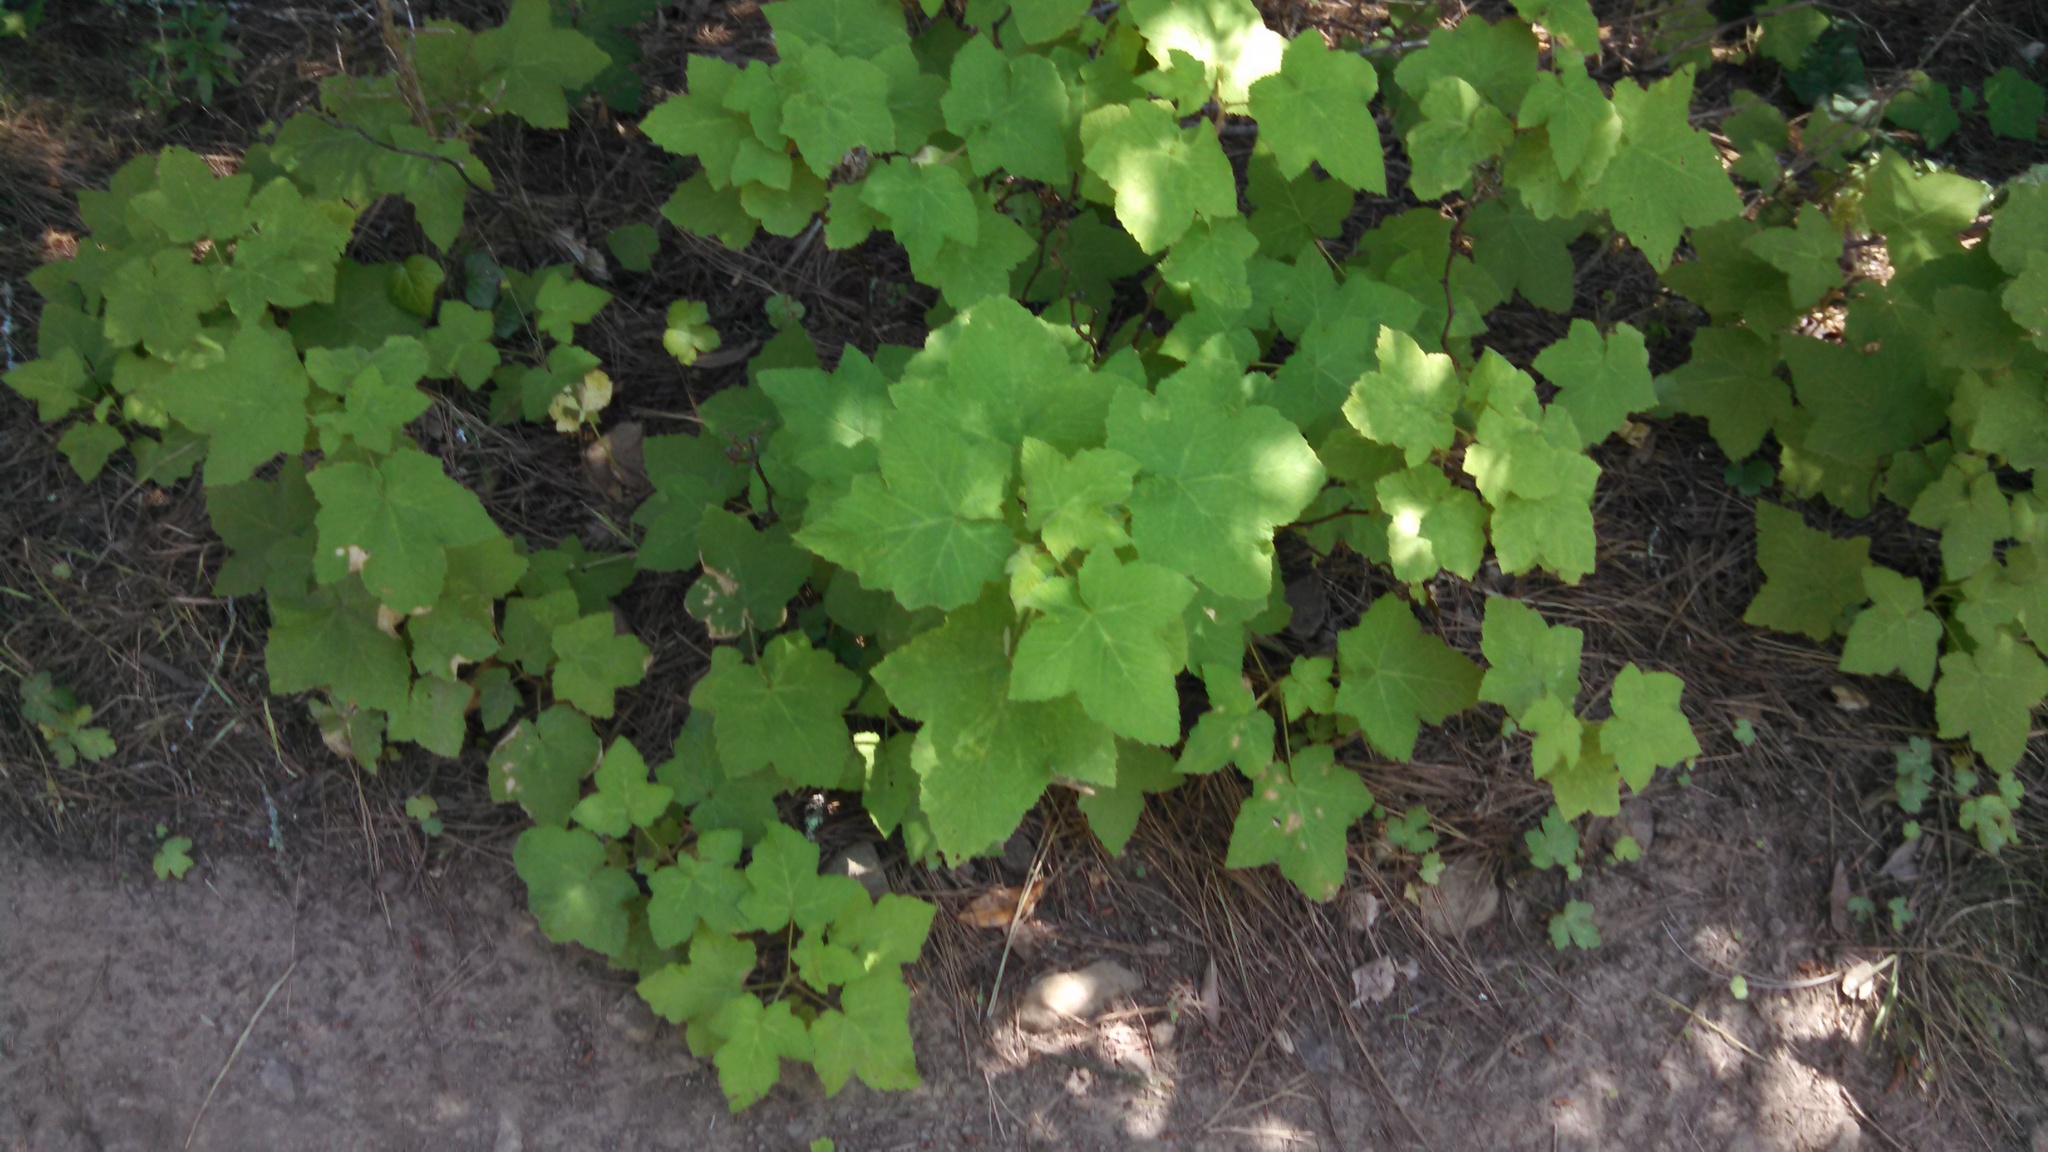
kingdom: Plantae
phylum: Tracheophyta
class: Magnoliopsida
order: Rosales
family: Rosaceae
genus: Rubus
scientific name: Rubus parviflorus
